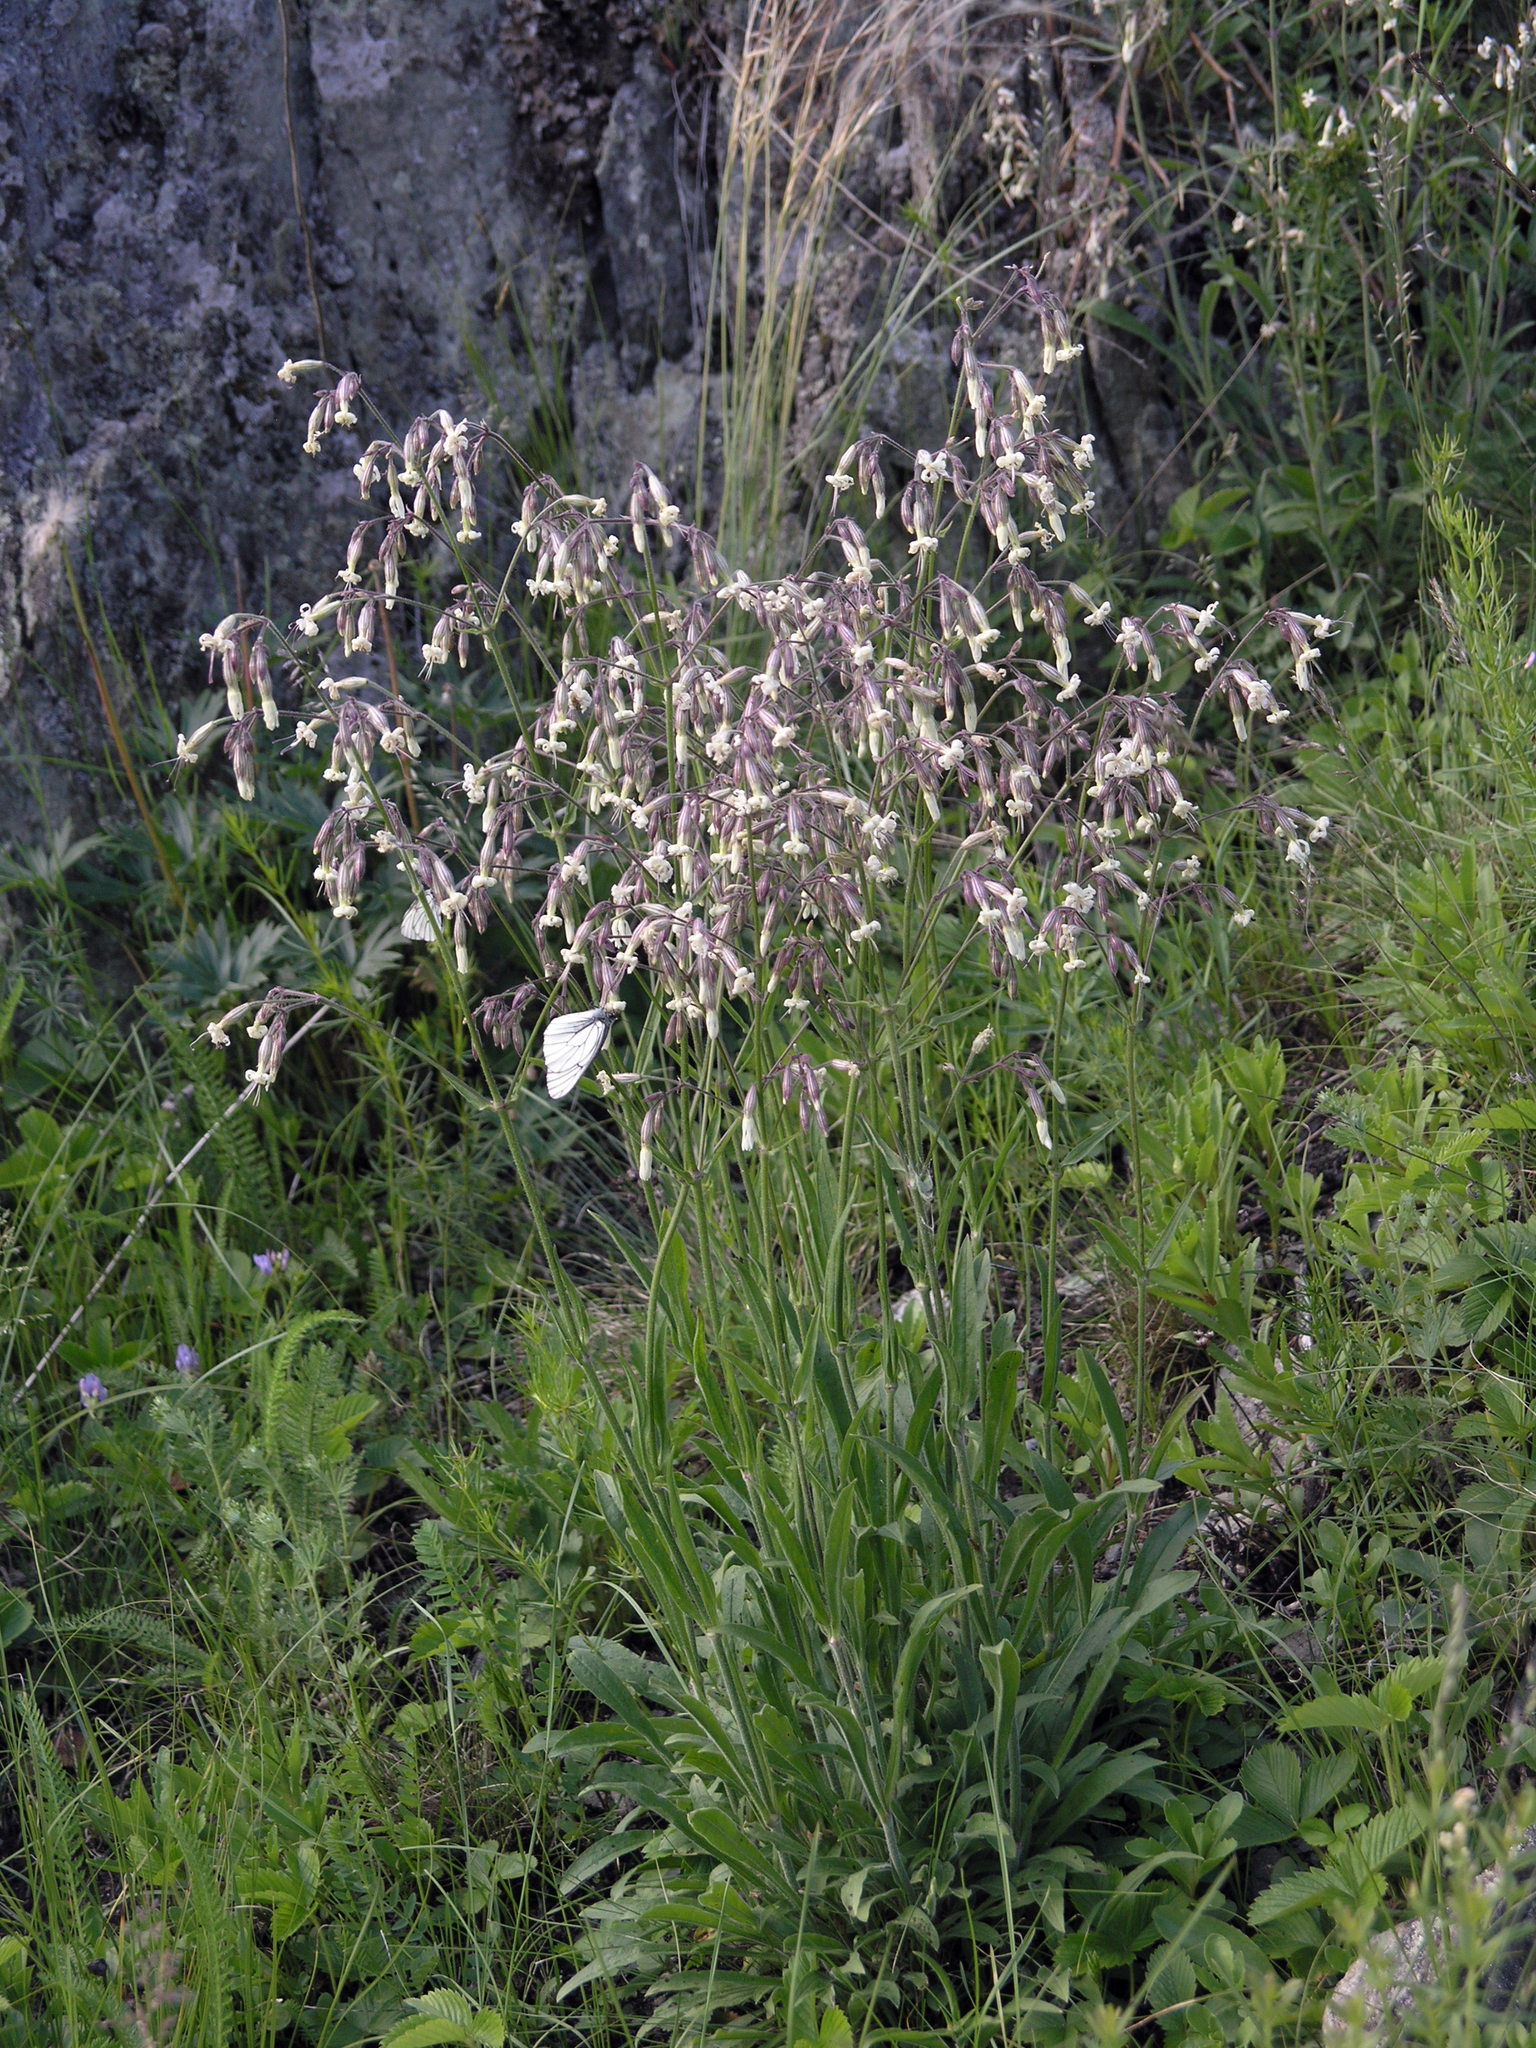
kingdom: Plantae
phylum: Tracheophyta
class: Magnoliopsida
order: Caryophyllales
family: Caryophyllaceae
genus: Silene
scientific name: Silene nutans
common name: Nottingham catchfly
